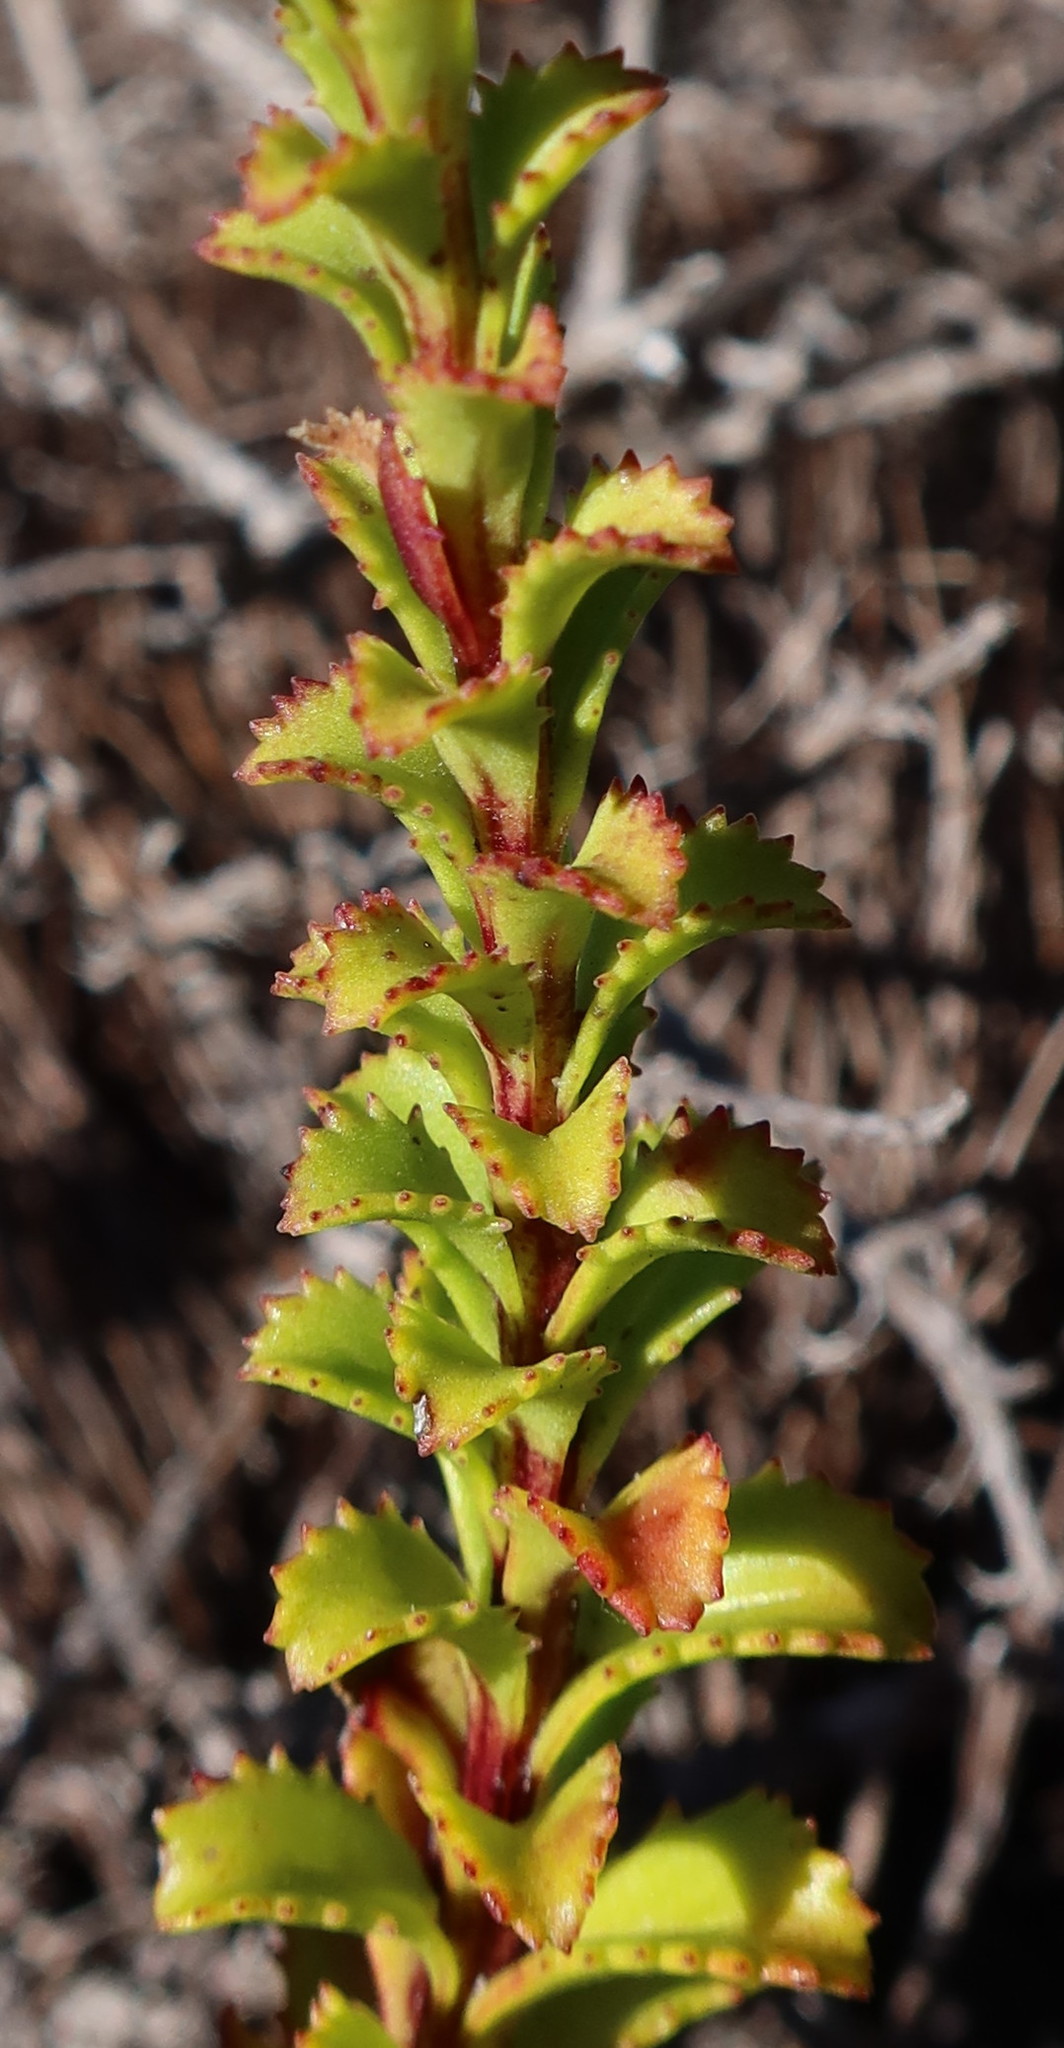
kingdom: Plantae
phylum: Tracheophyta
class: Magnoliopsida
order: Lamiales
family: Scrophulariaceae
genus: Pseudoselago
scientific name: Pseudoselago serrata
